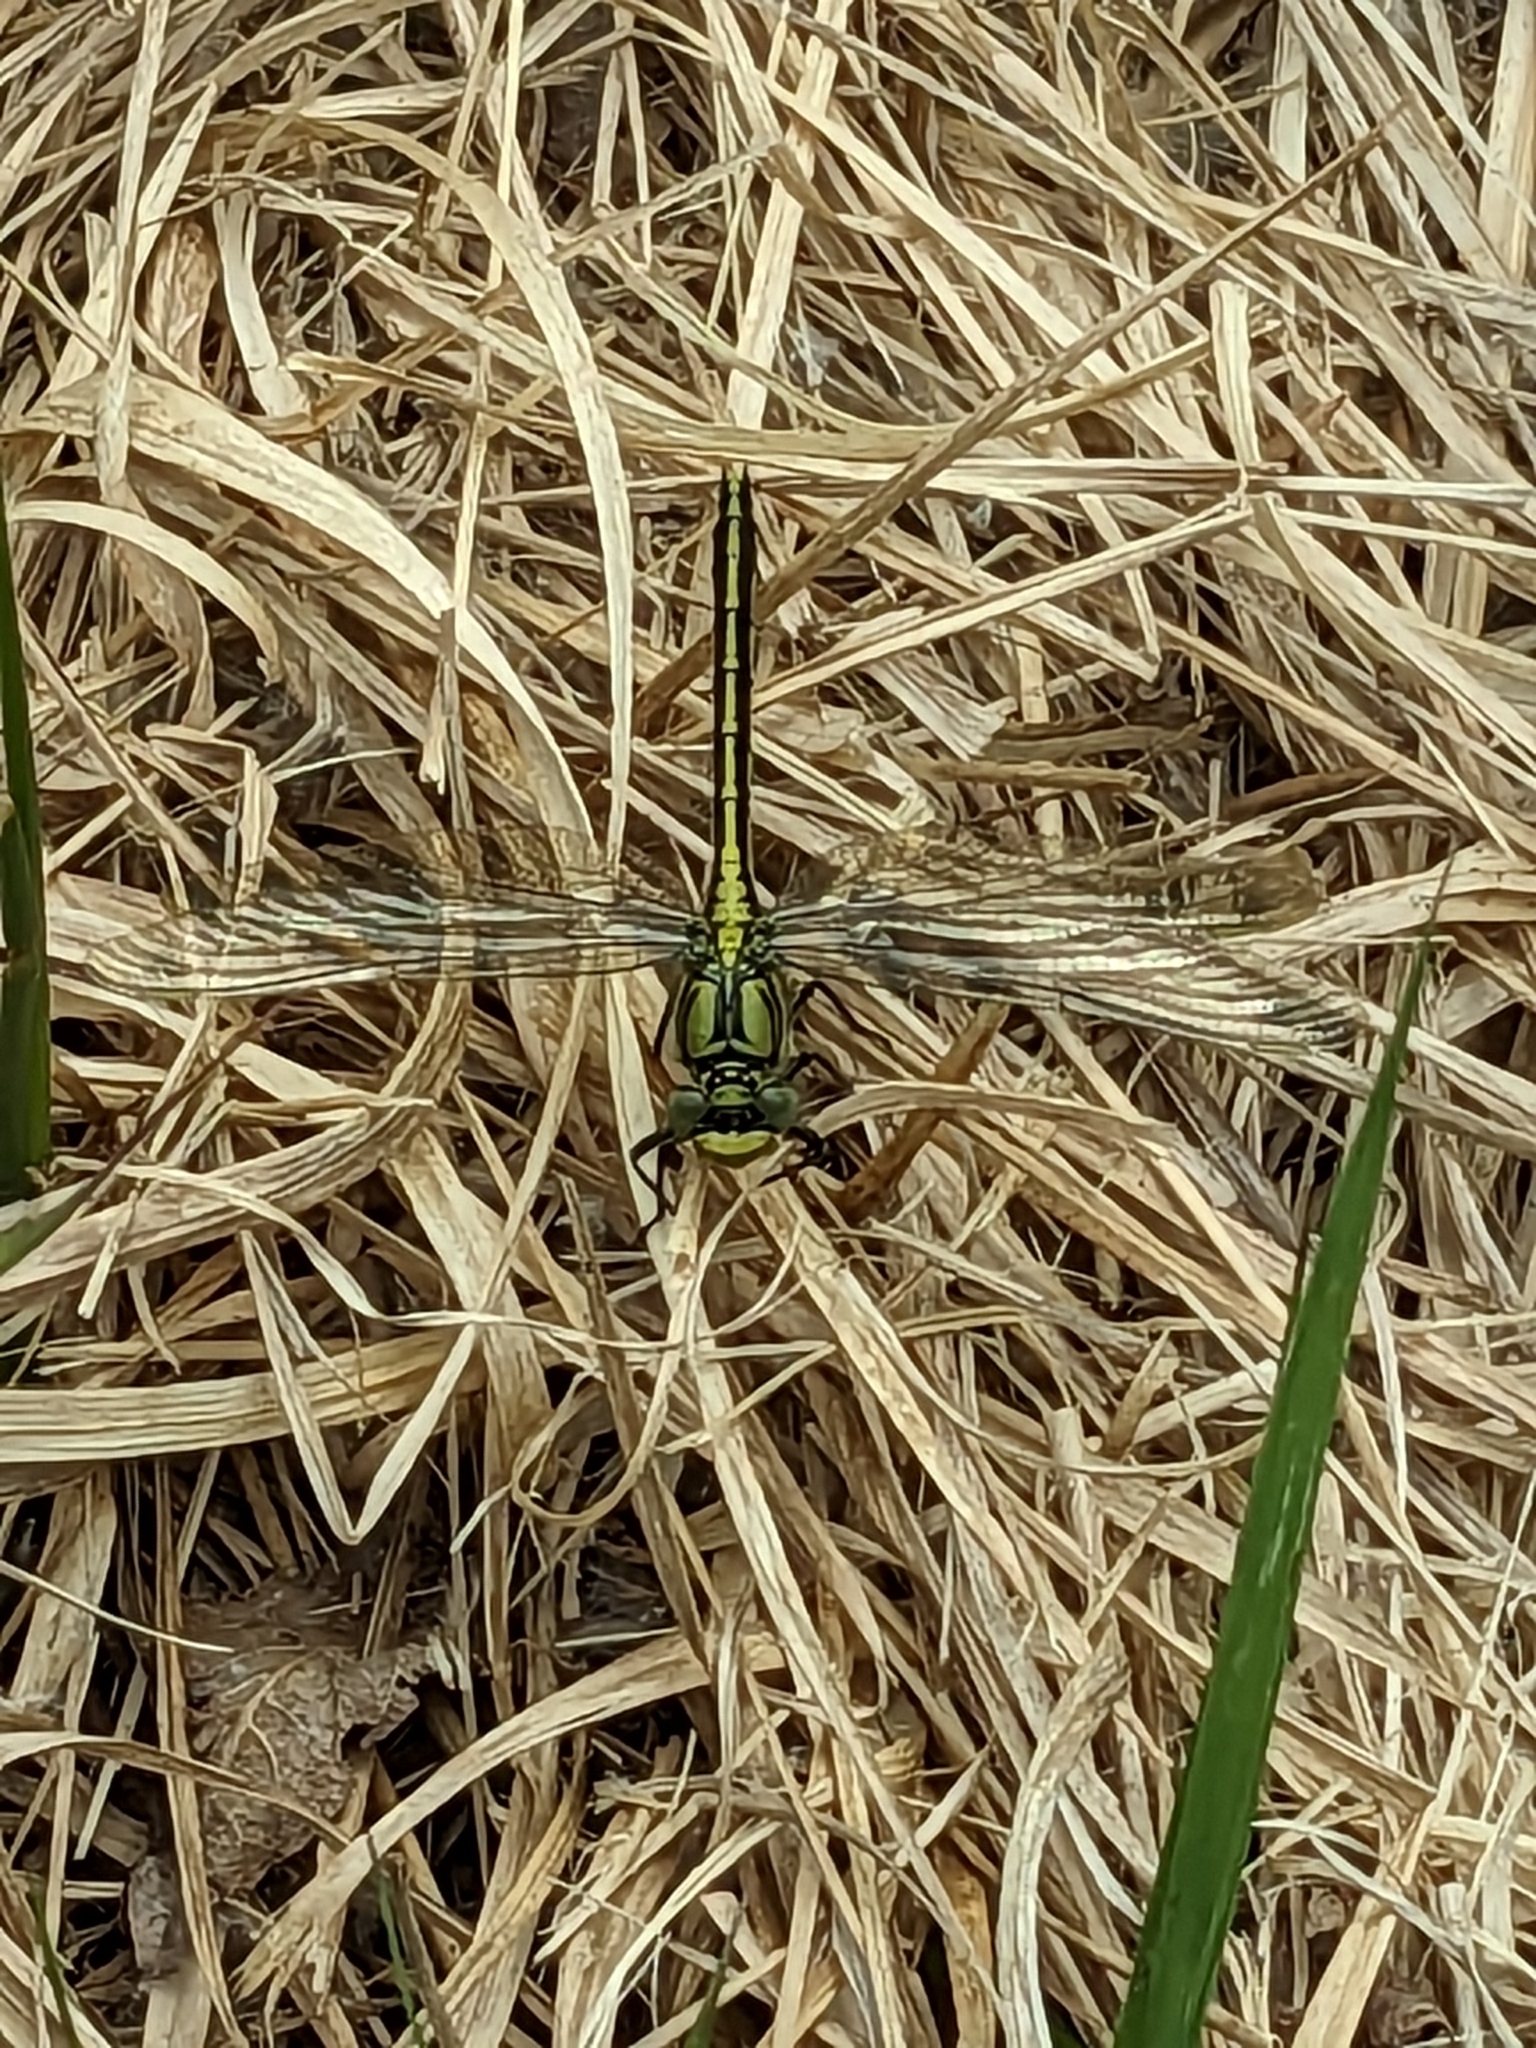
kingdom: Animalia
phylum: Arthropoda
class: Insecta
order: Odonata
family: Gomphidae
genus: Gomphus
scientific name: Gomphus pulchellus
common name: Western clubtail
